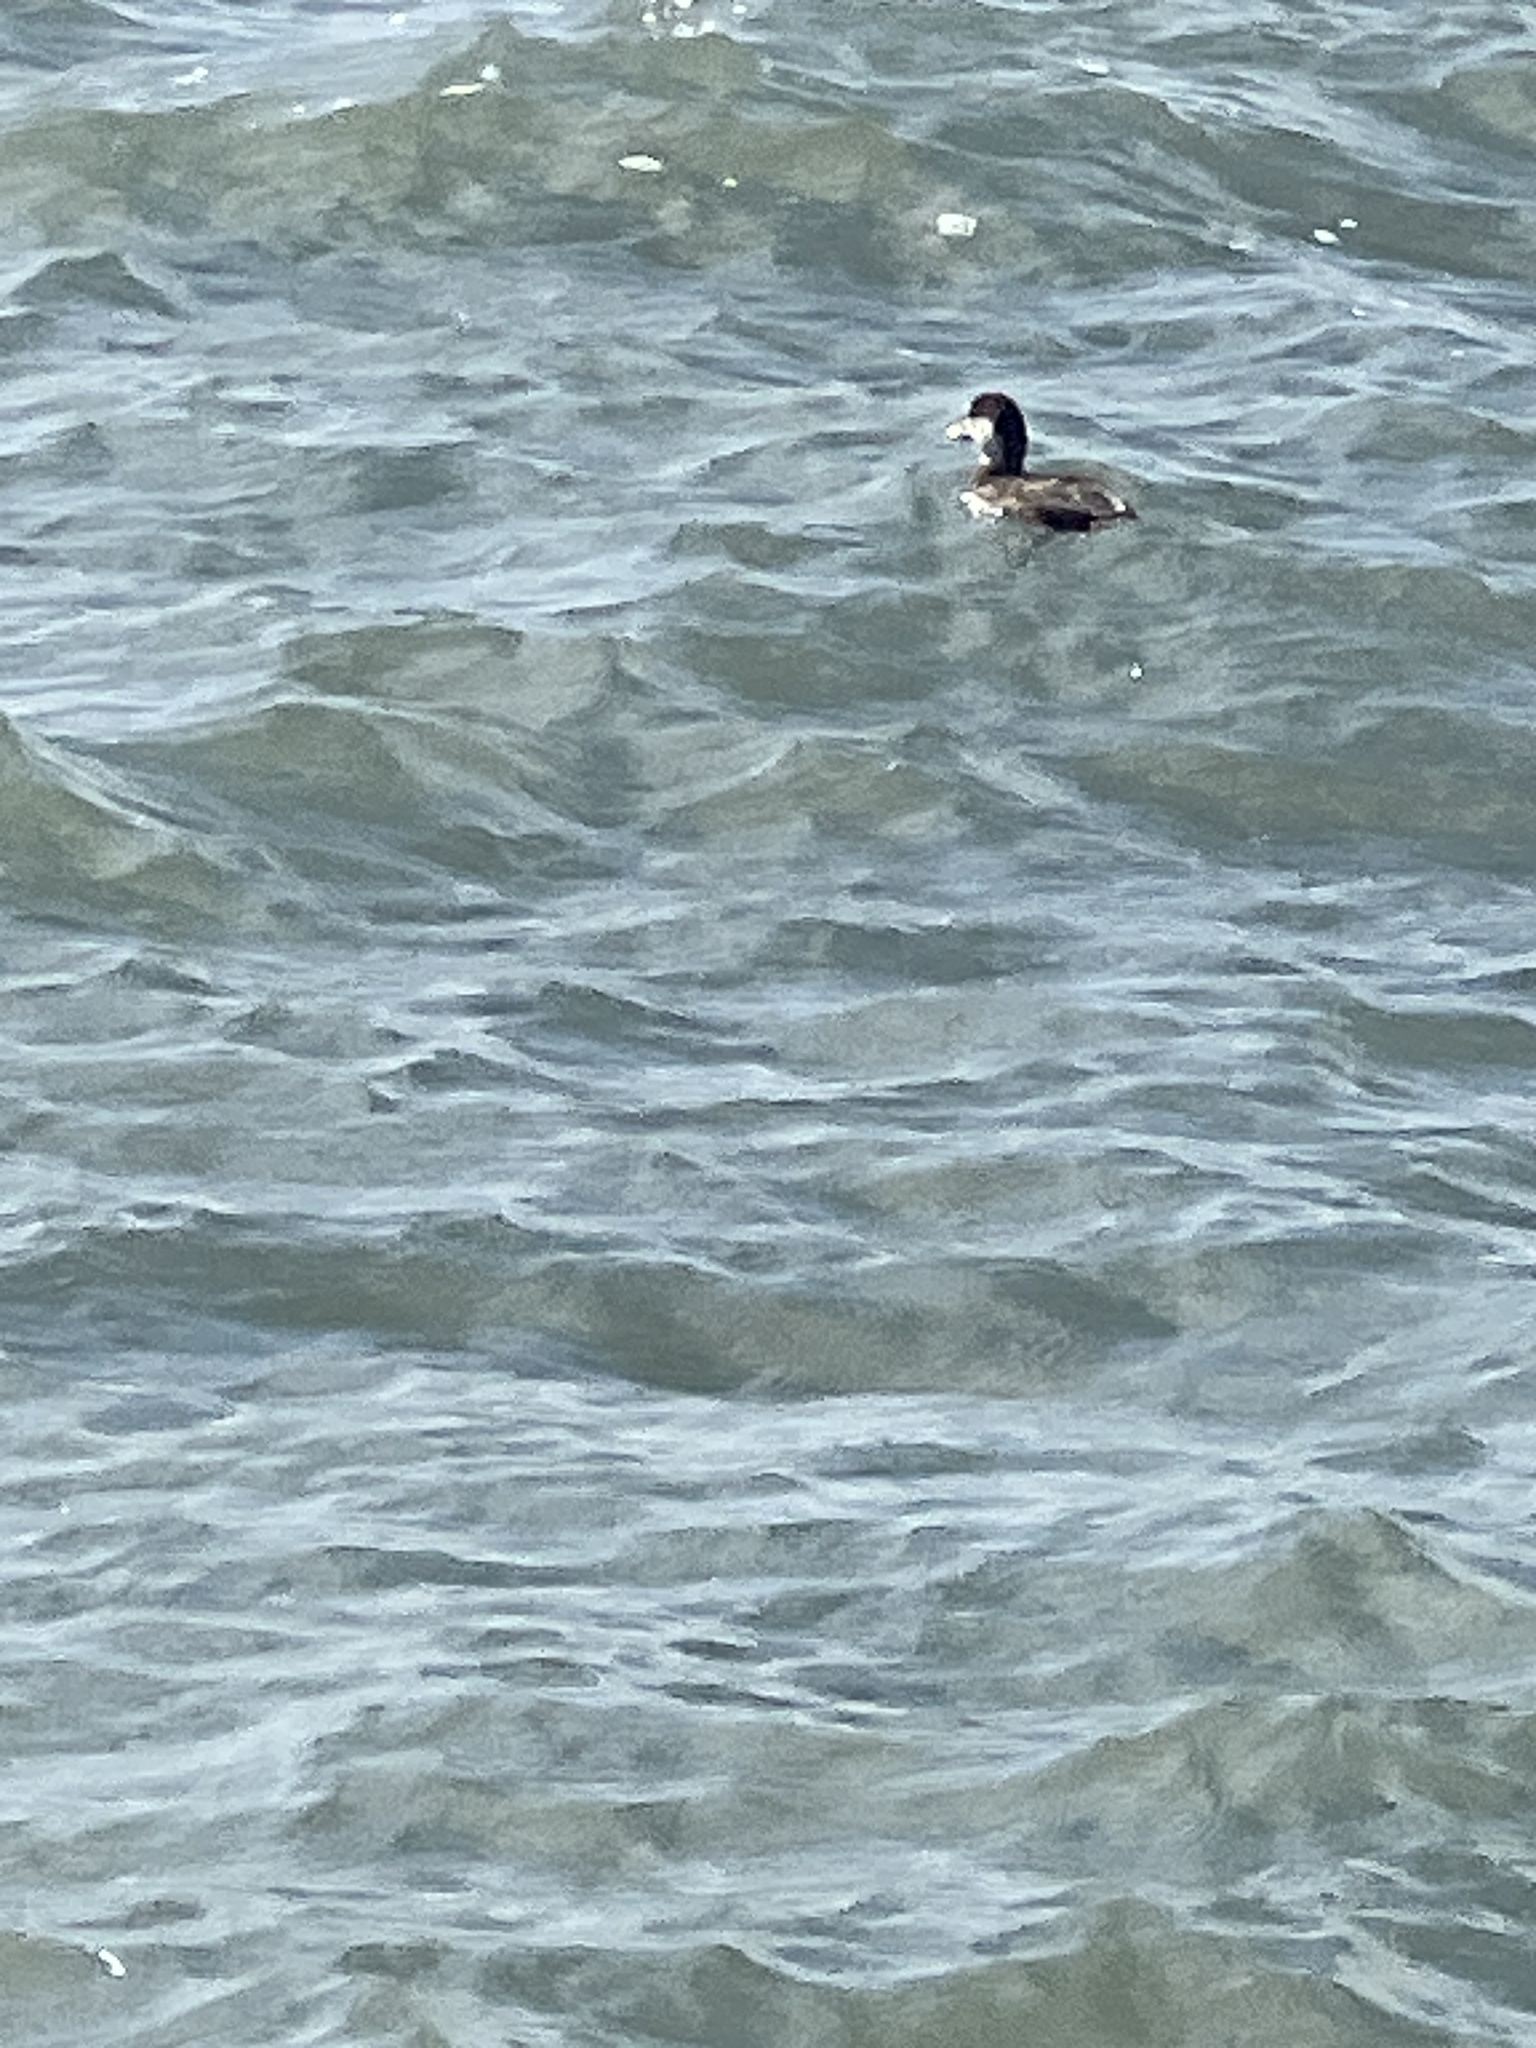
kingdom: Animalia
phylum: Chordata
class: Aves
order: Anseriformes
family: Anatidae
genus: Melanitta
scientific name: Melanitta americana
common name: Black scoter
